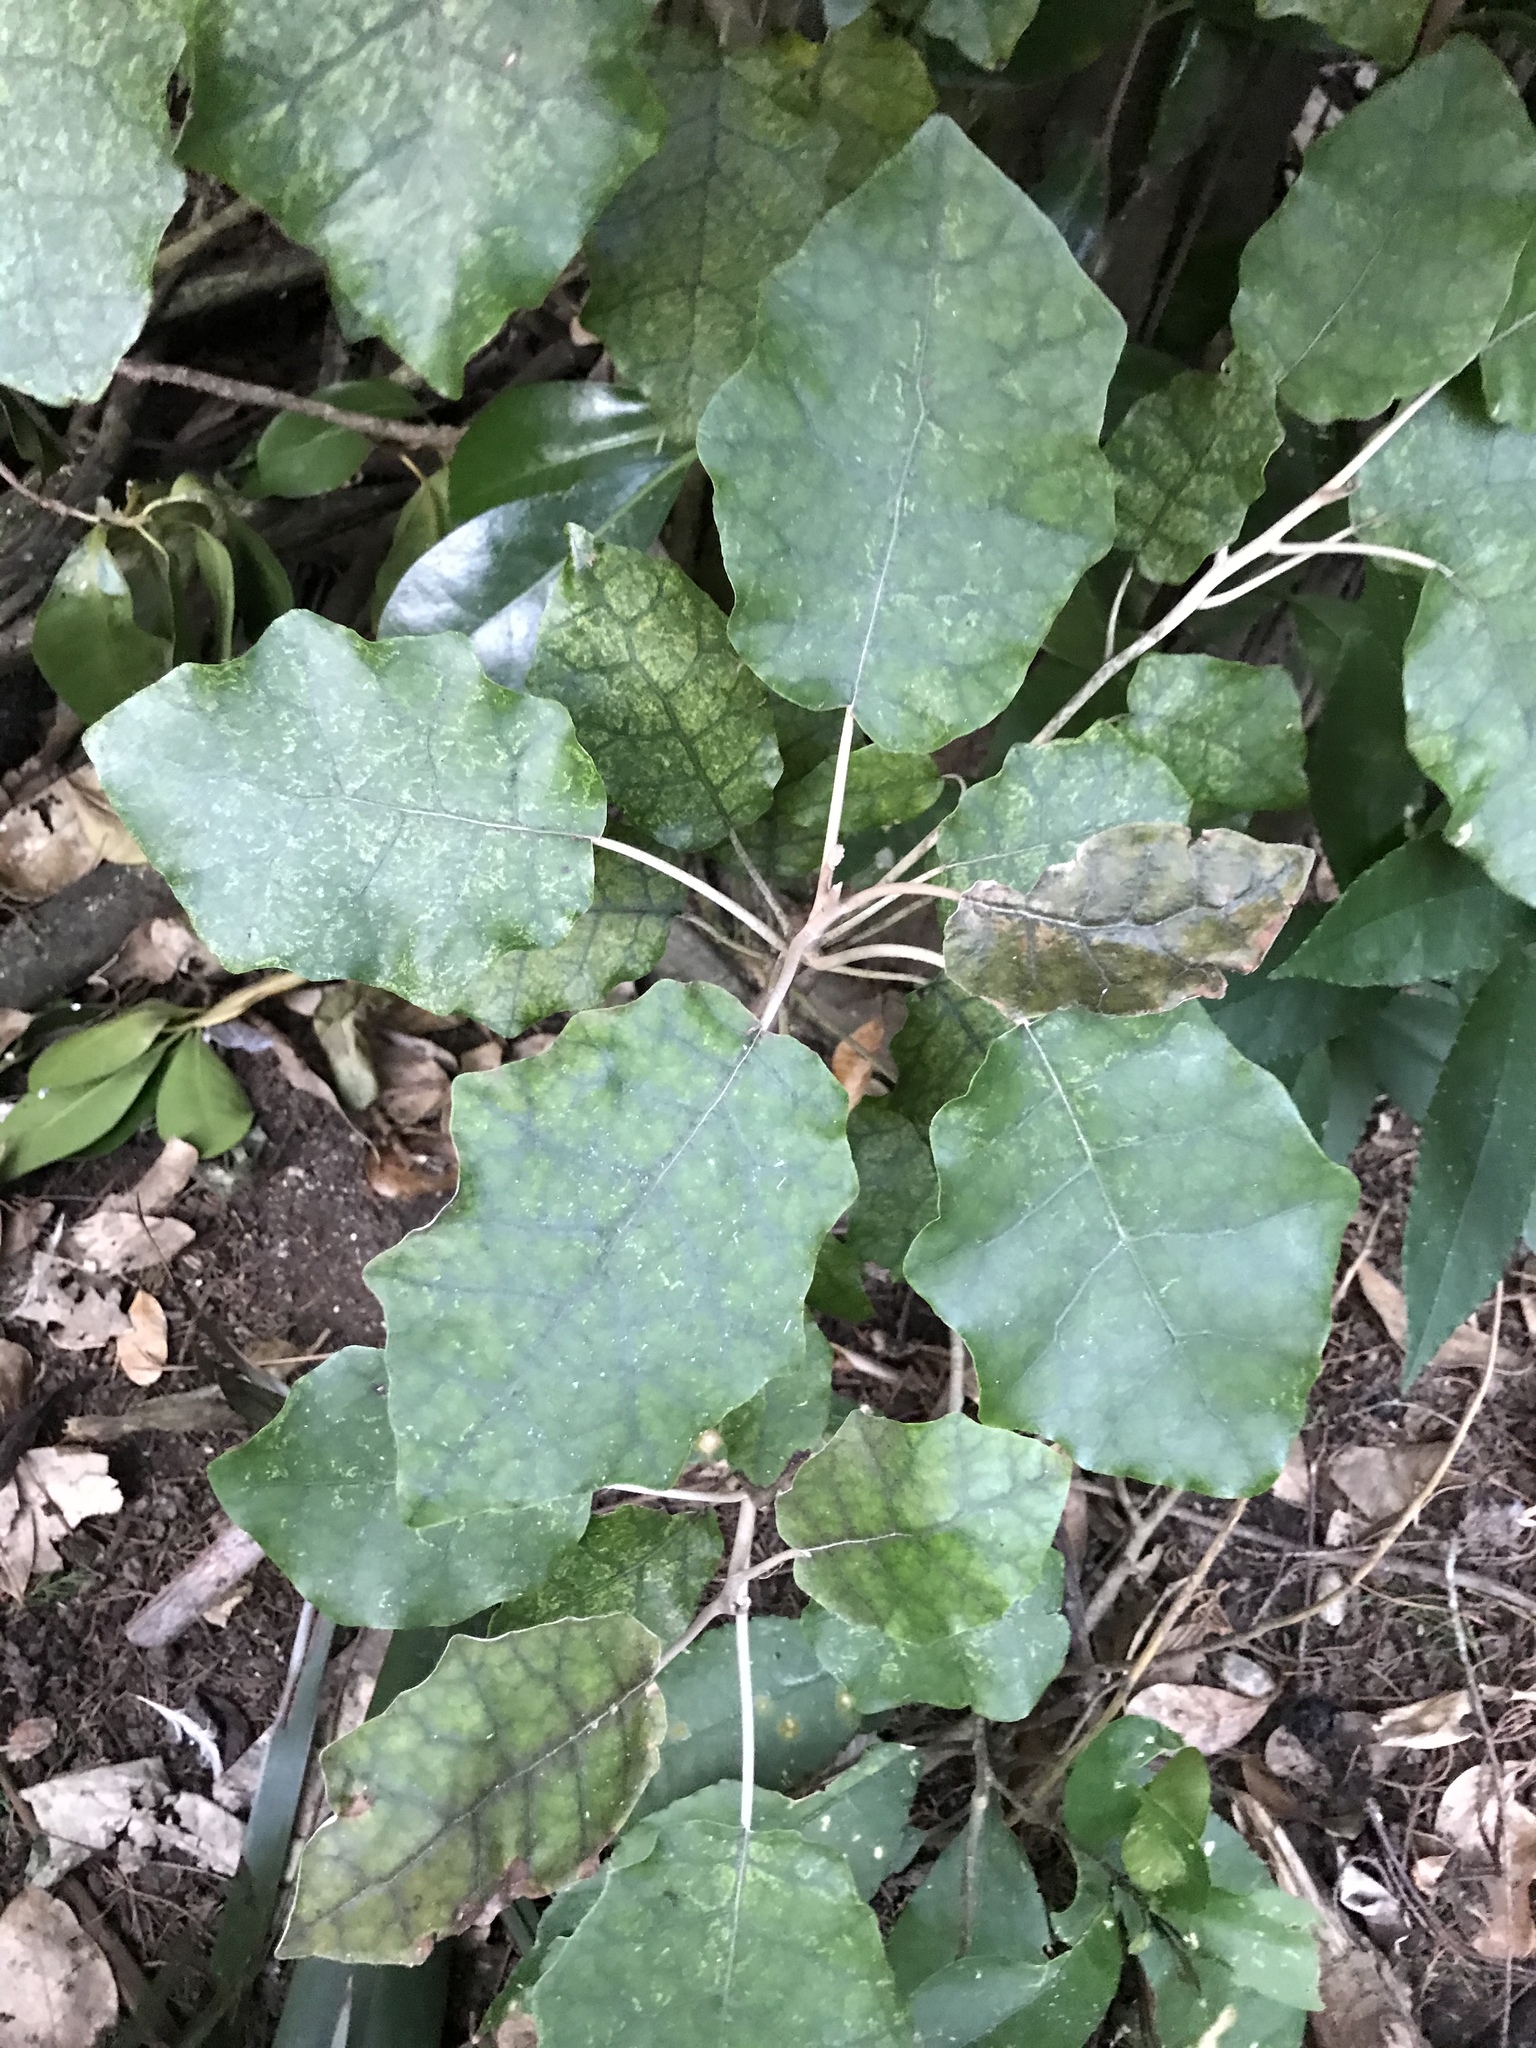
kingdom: Plantae
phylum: Tracheophyta
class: Magnoliopsida
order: Asterales
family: Asteraceae
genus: Brachyglottis
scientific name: Brachyglottis repanda
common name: Hedge ragwort
